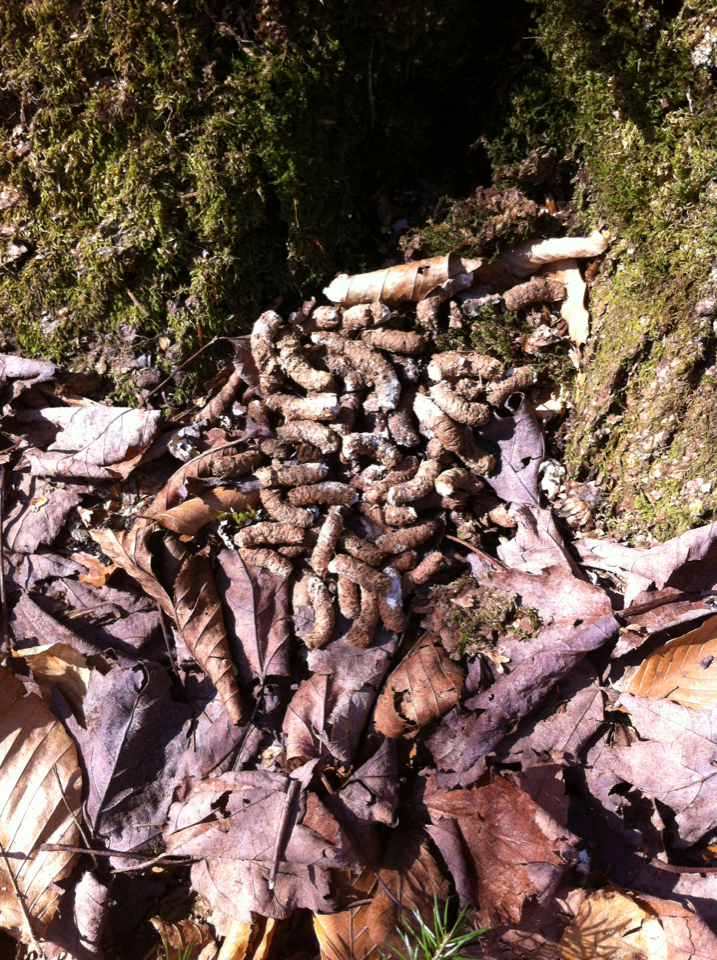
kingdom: Animalia
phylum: Chordata
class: Aves
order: Galliformes
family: Phasianidae
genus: Bonasa
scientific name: Bonasa umbellus
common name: Ruffed grouse
